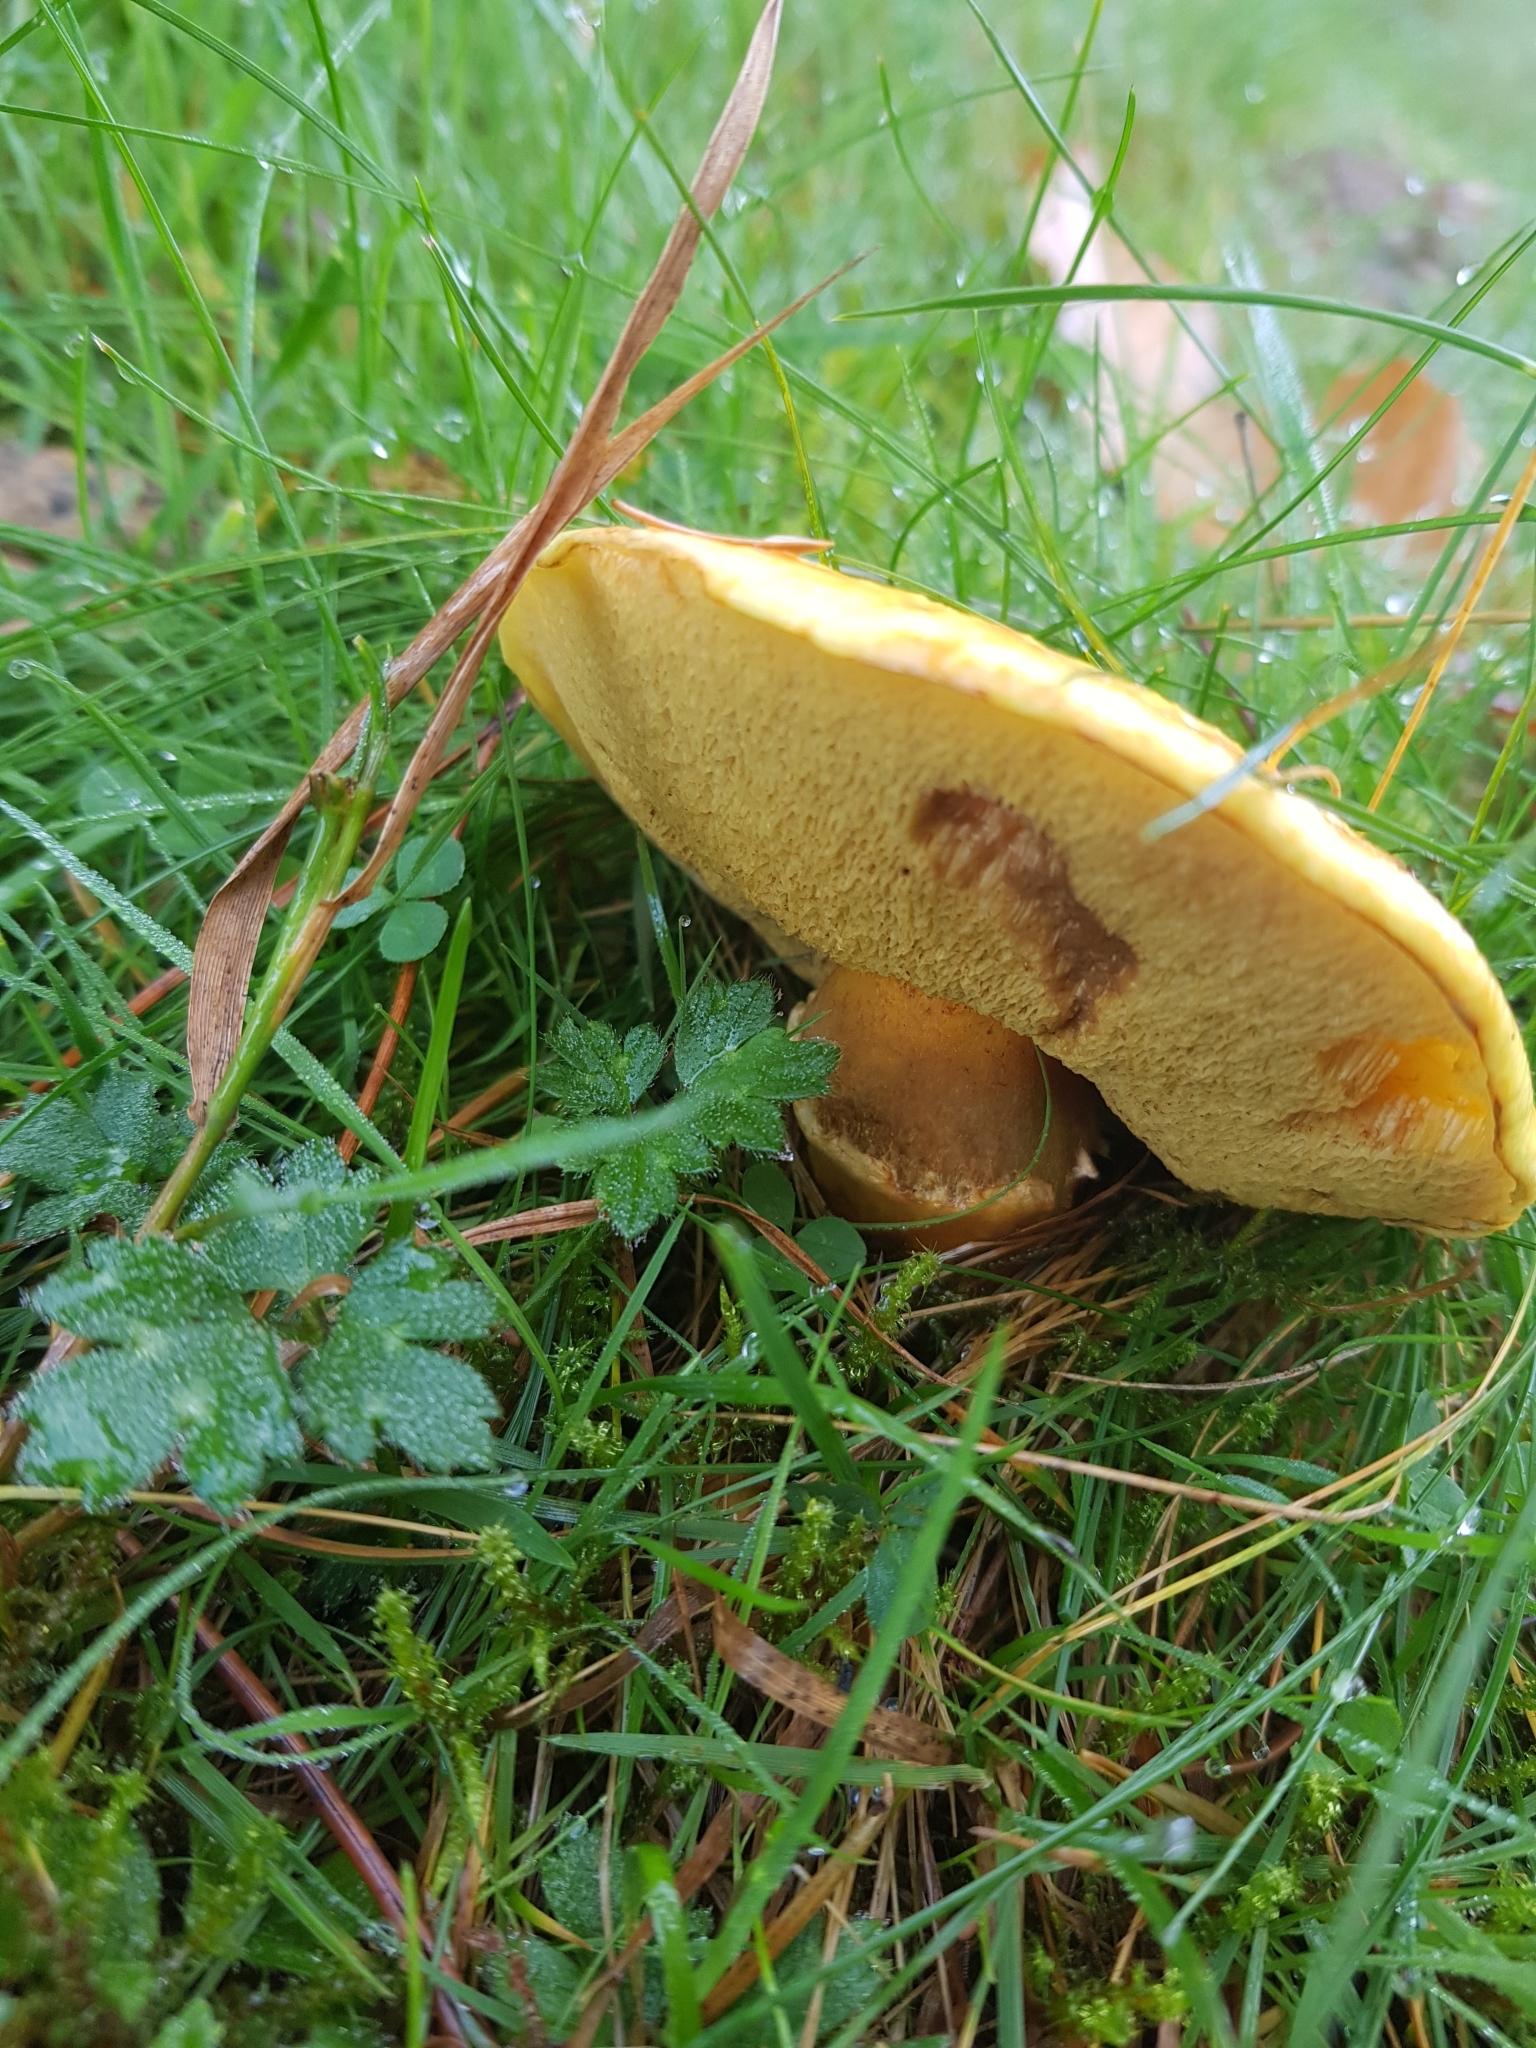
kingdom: Fungi
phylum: Basidiomycota
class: Agaricomycetes
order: Boletales
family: Suillaceae
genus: Suillus
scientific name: Suillus grevillei
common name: Larch bolete
